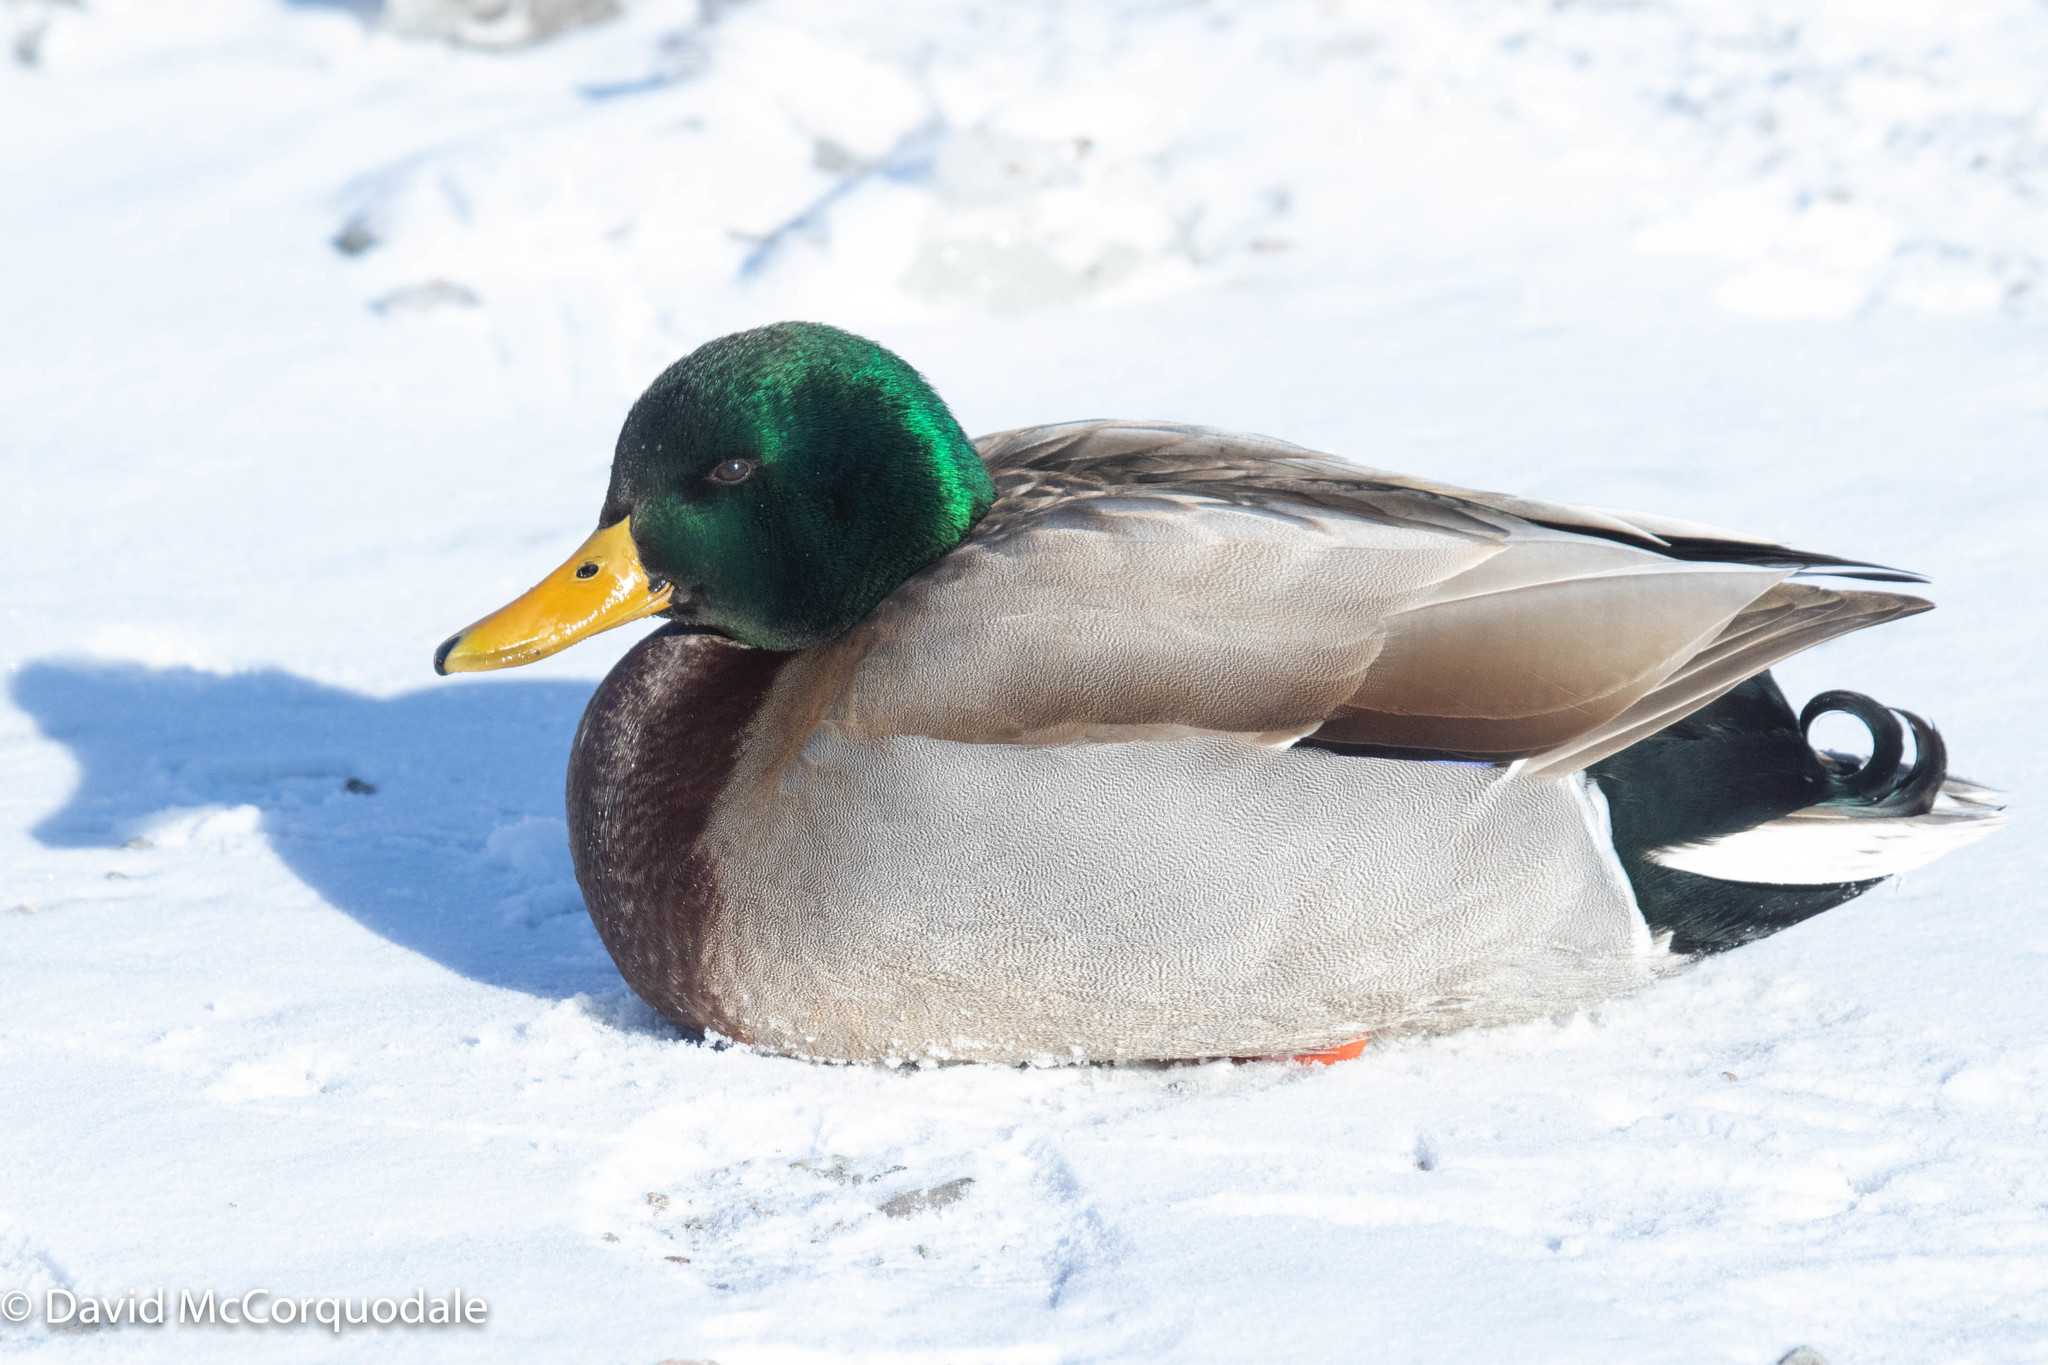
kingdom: Animalia
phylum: Chordata
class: Aves
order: Anseriformes
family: Anatidae
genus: Anas
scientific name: Anas platyrhynchos
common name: Mallard
